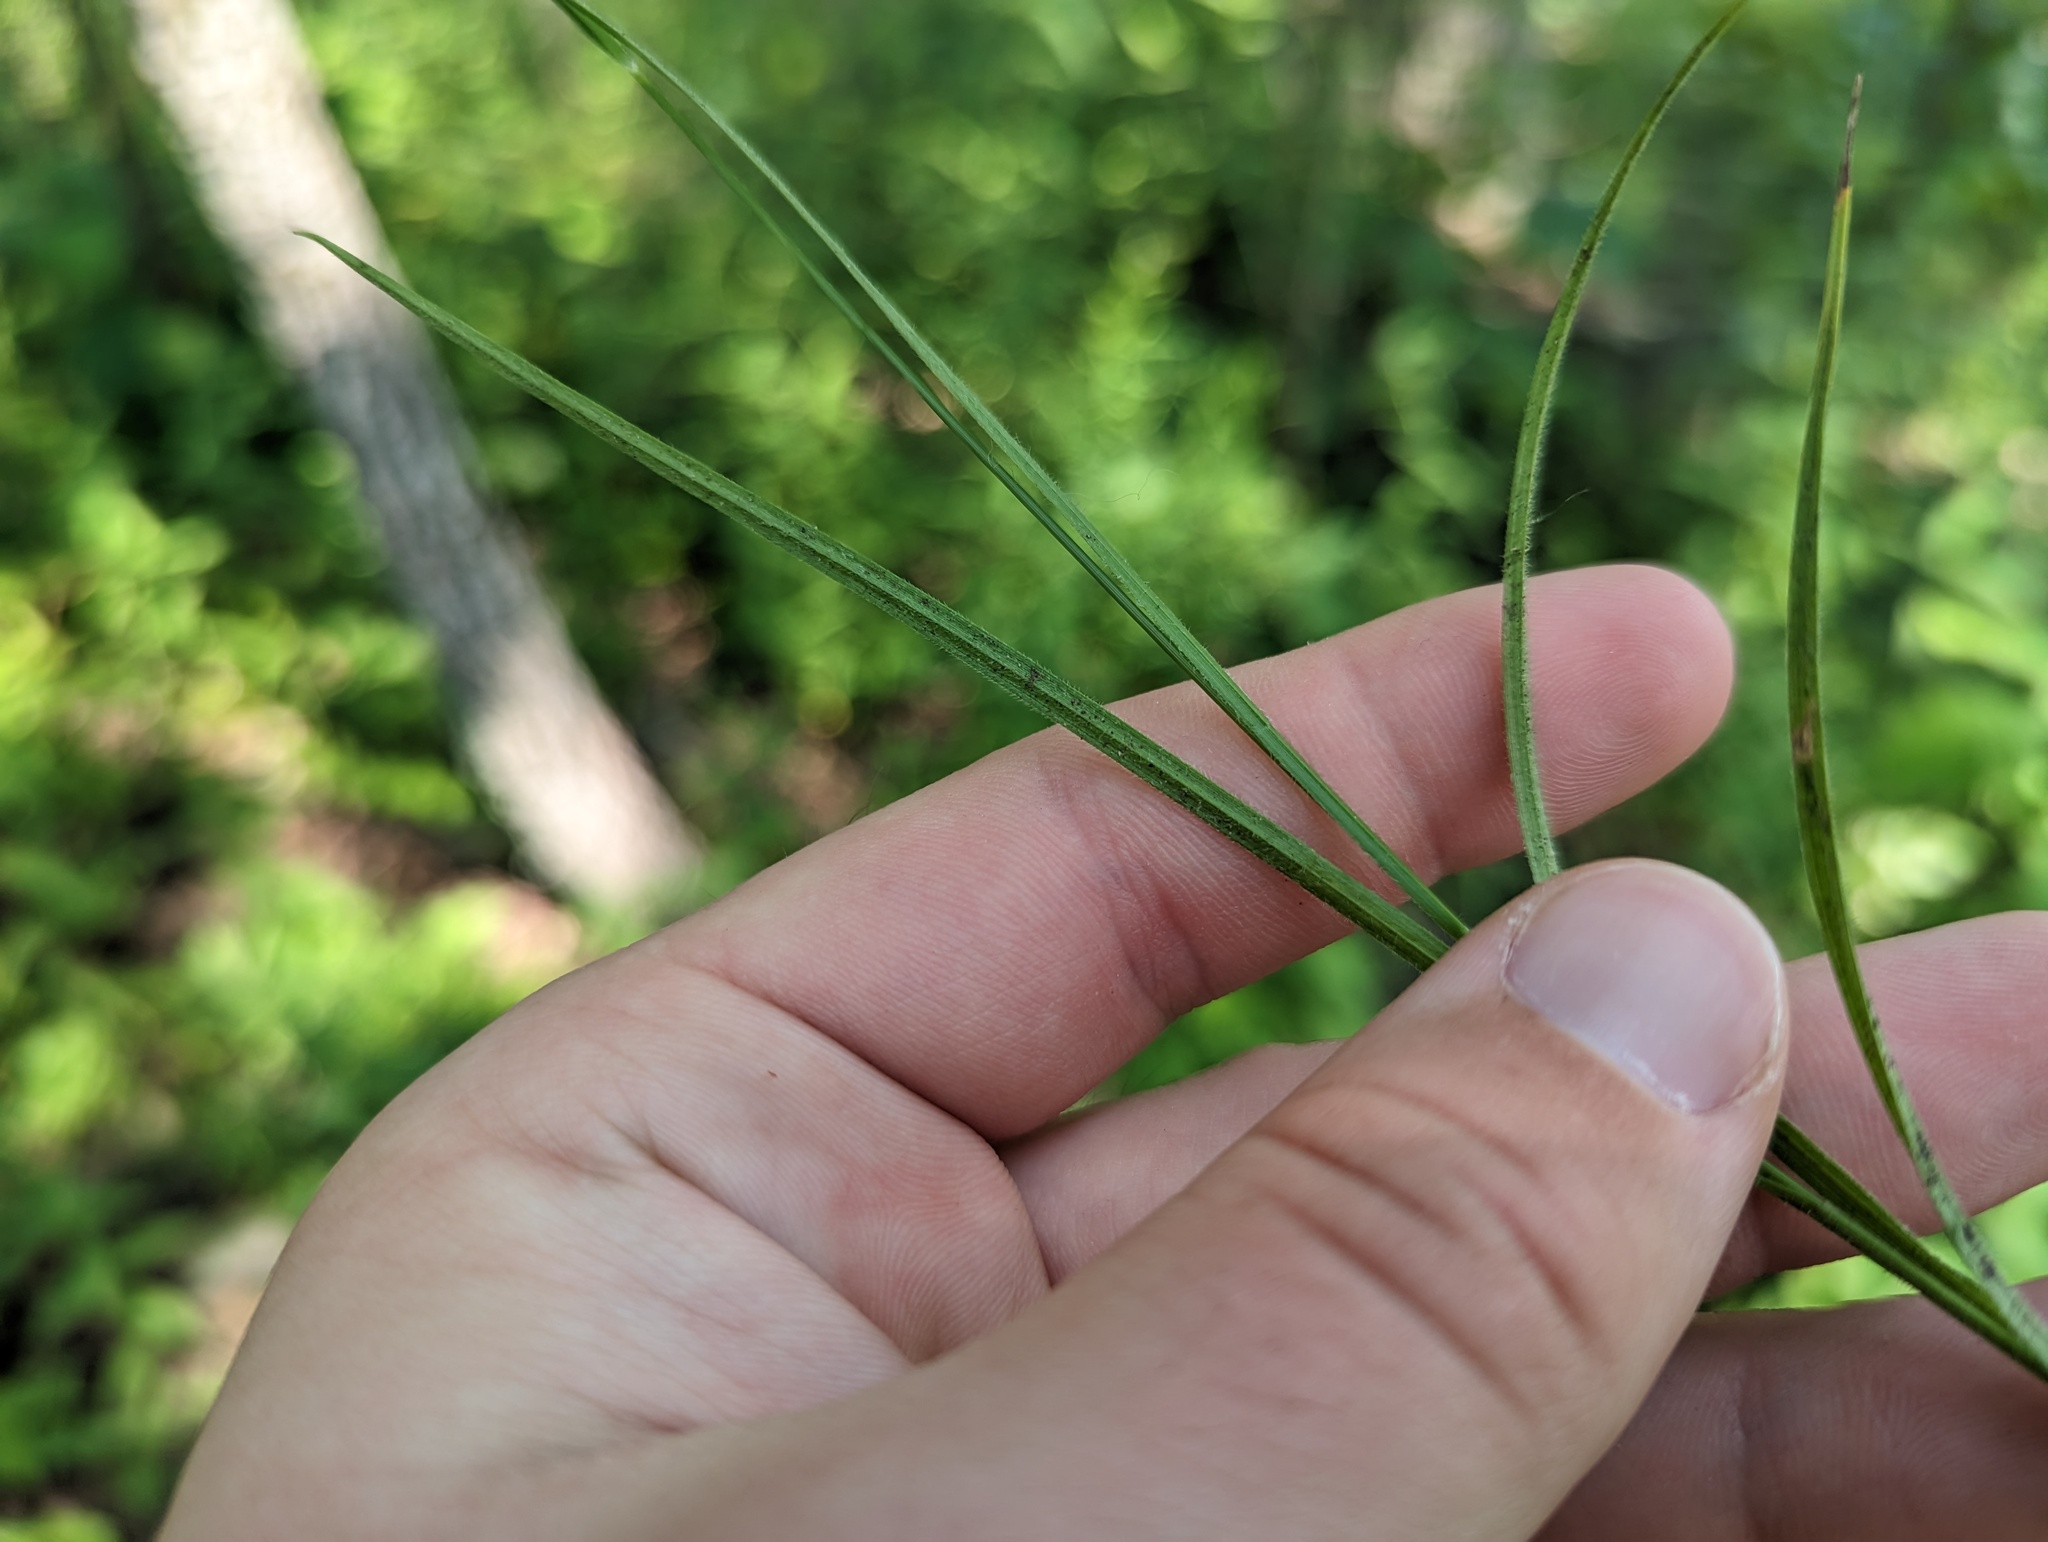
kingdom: Plantae
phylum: Tracheophyta
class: Liliopsida
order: Poales
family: Cyperaceae
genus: Carex
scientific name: Carex hirsutella
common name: Fuzzy wuzzy sedge
